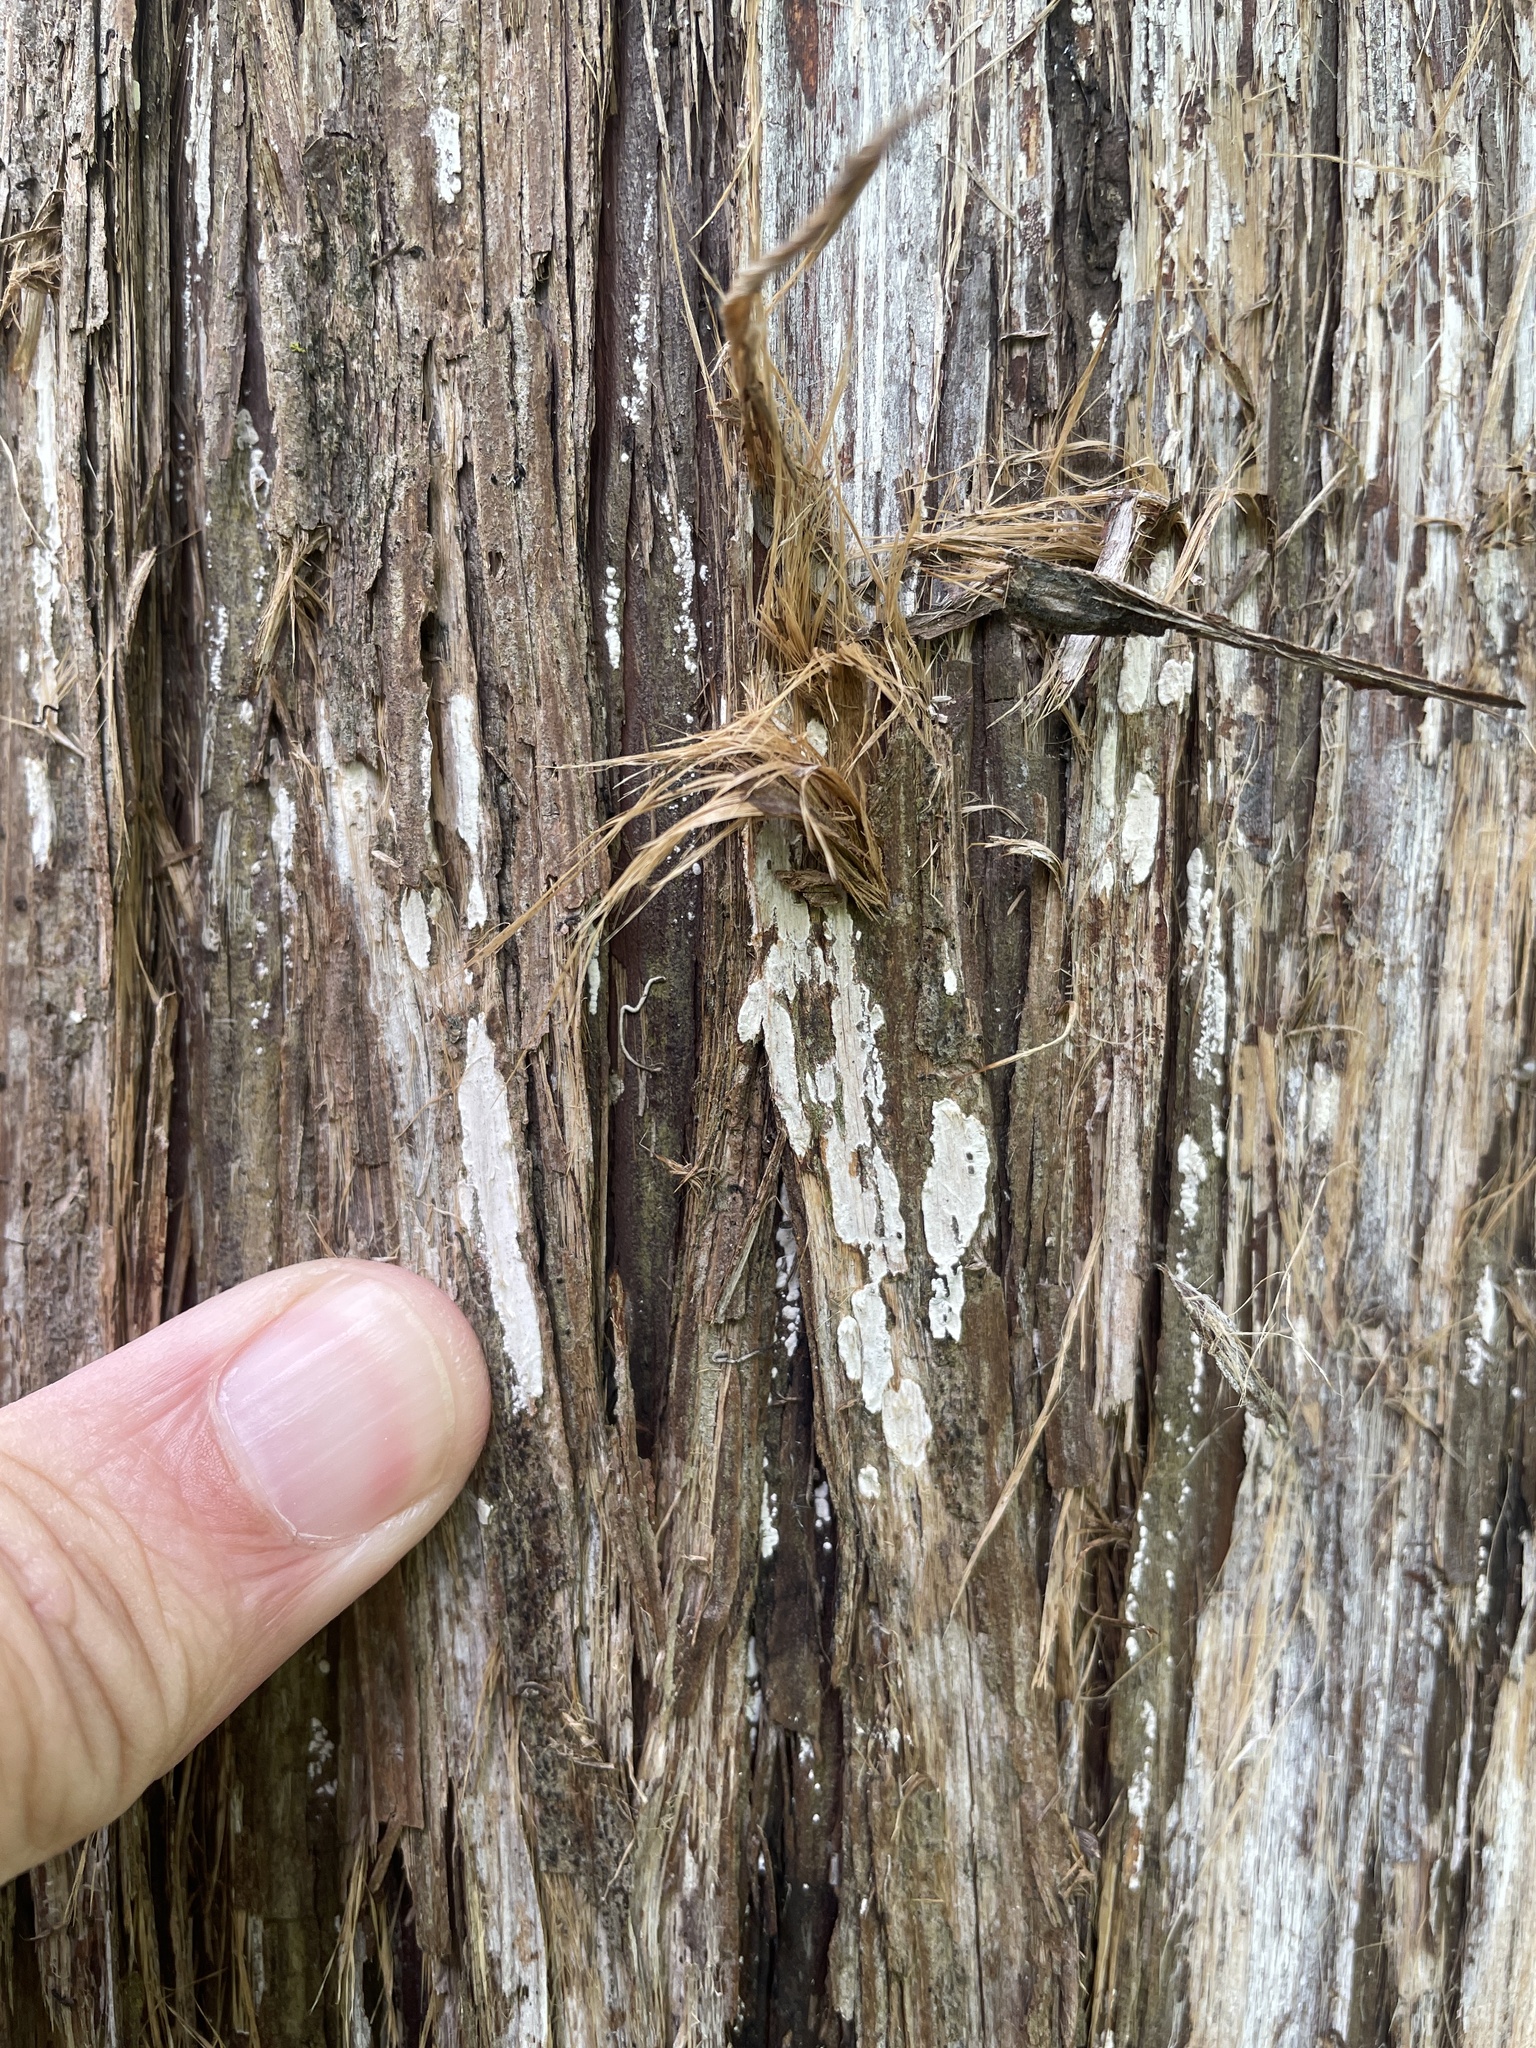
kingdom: Fungi
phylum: Basidiomycota
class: Agaricomycetes
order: Agaricales
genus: Dendrothele
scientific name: Dendrothele nivosa
